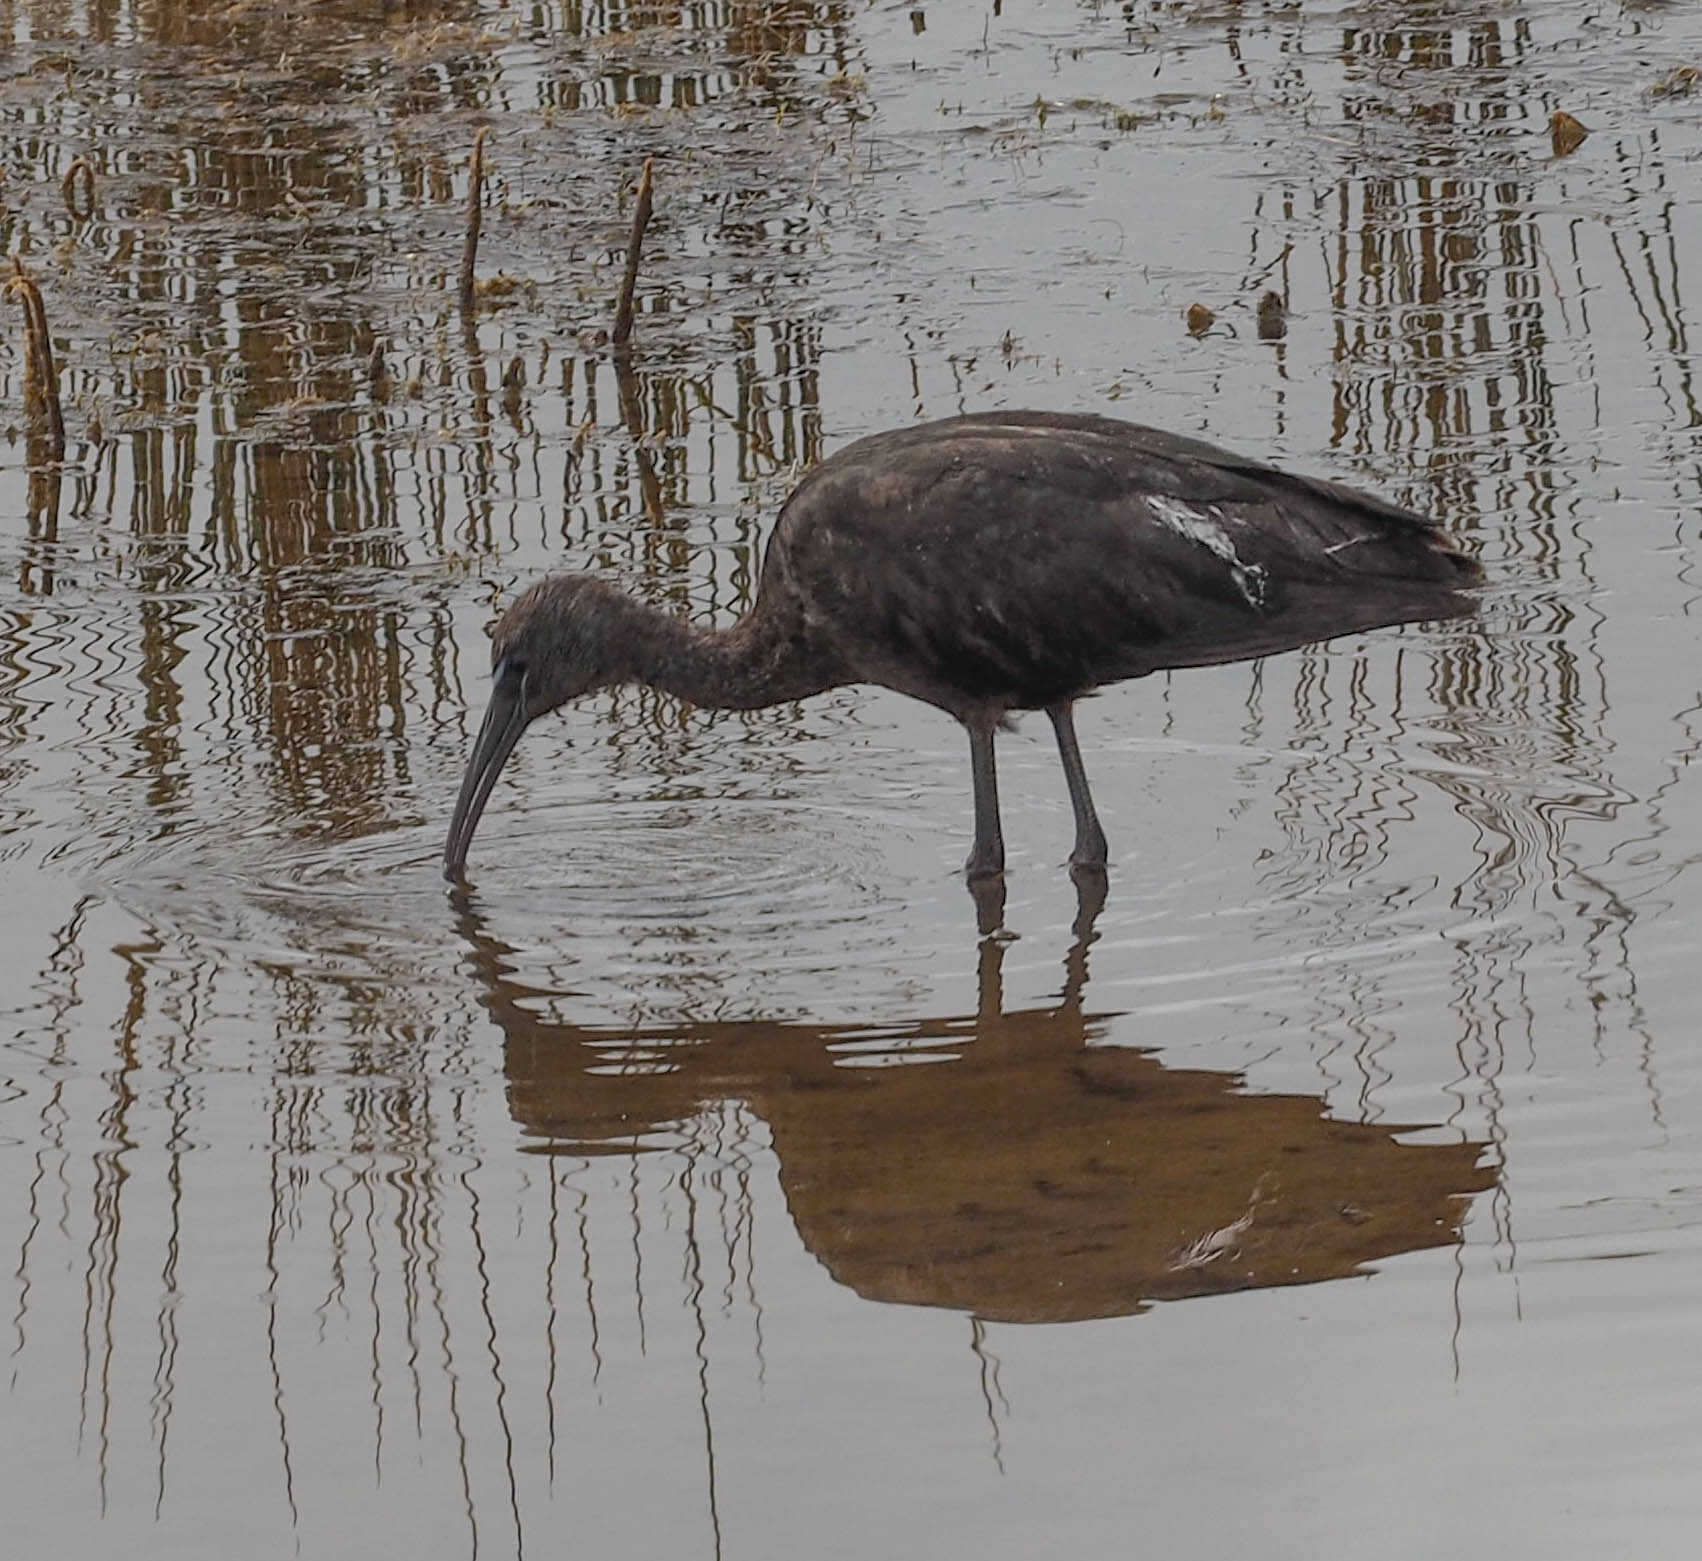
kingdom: Animalia
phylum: Chordata
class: Aves
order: Pelecaniformes
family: Threskiornithidae
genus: Plegadis
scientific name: Plegadis falcinellus
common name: Glossy ibis
